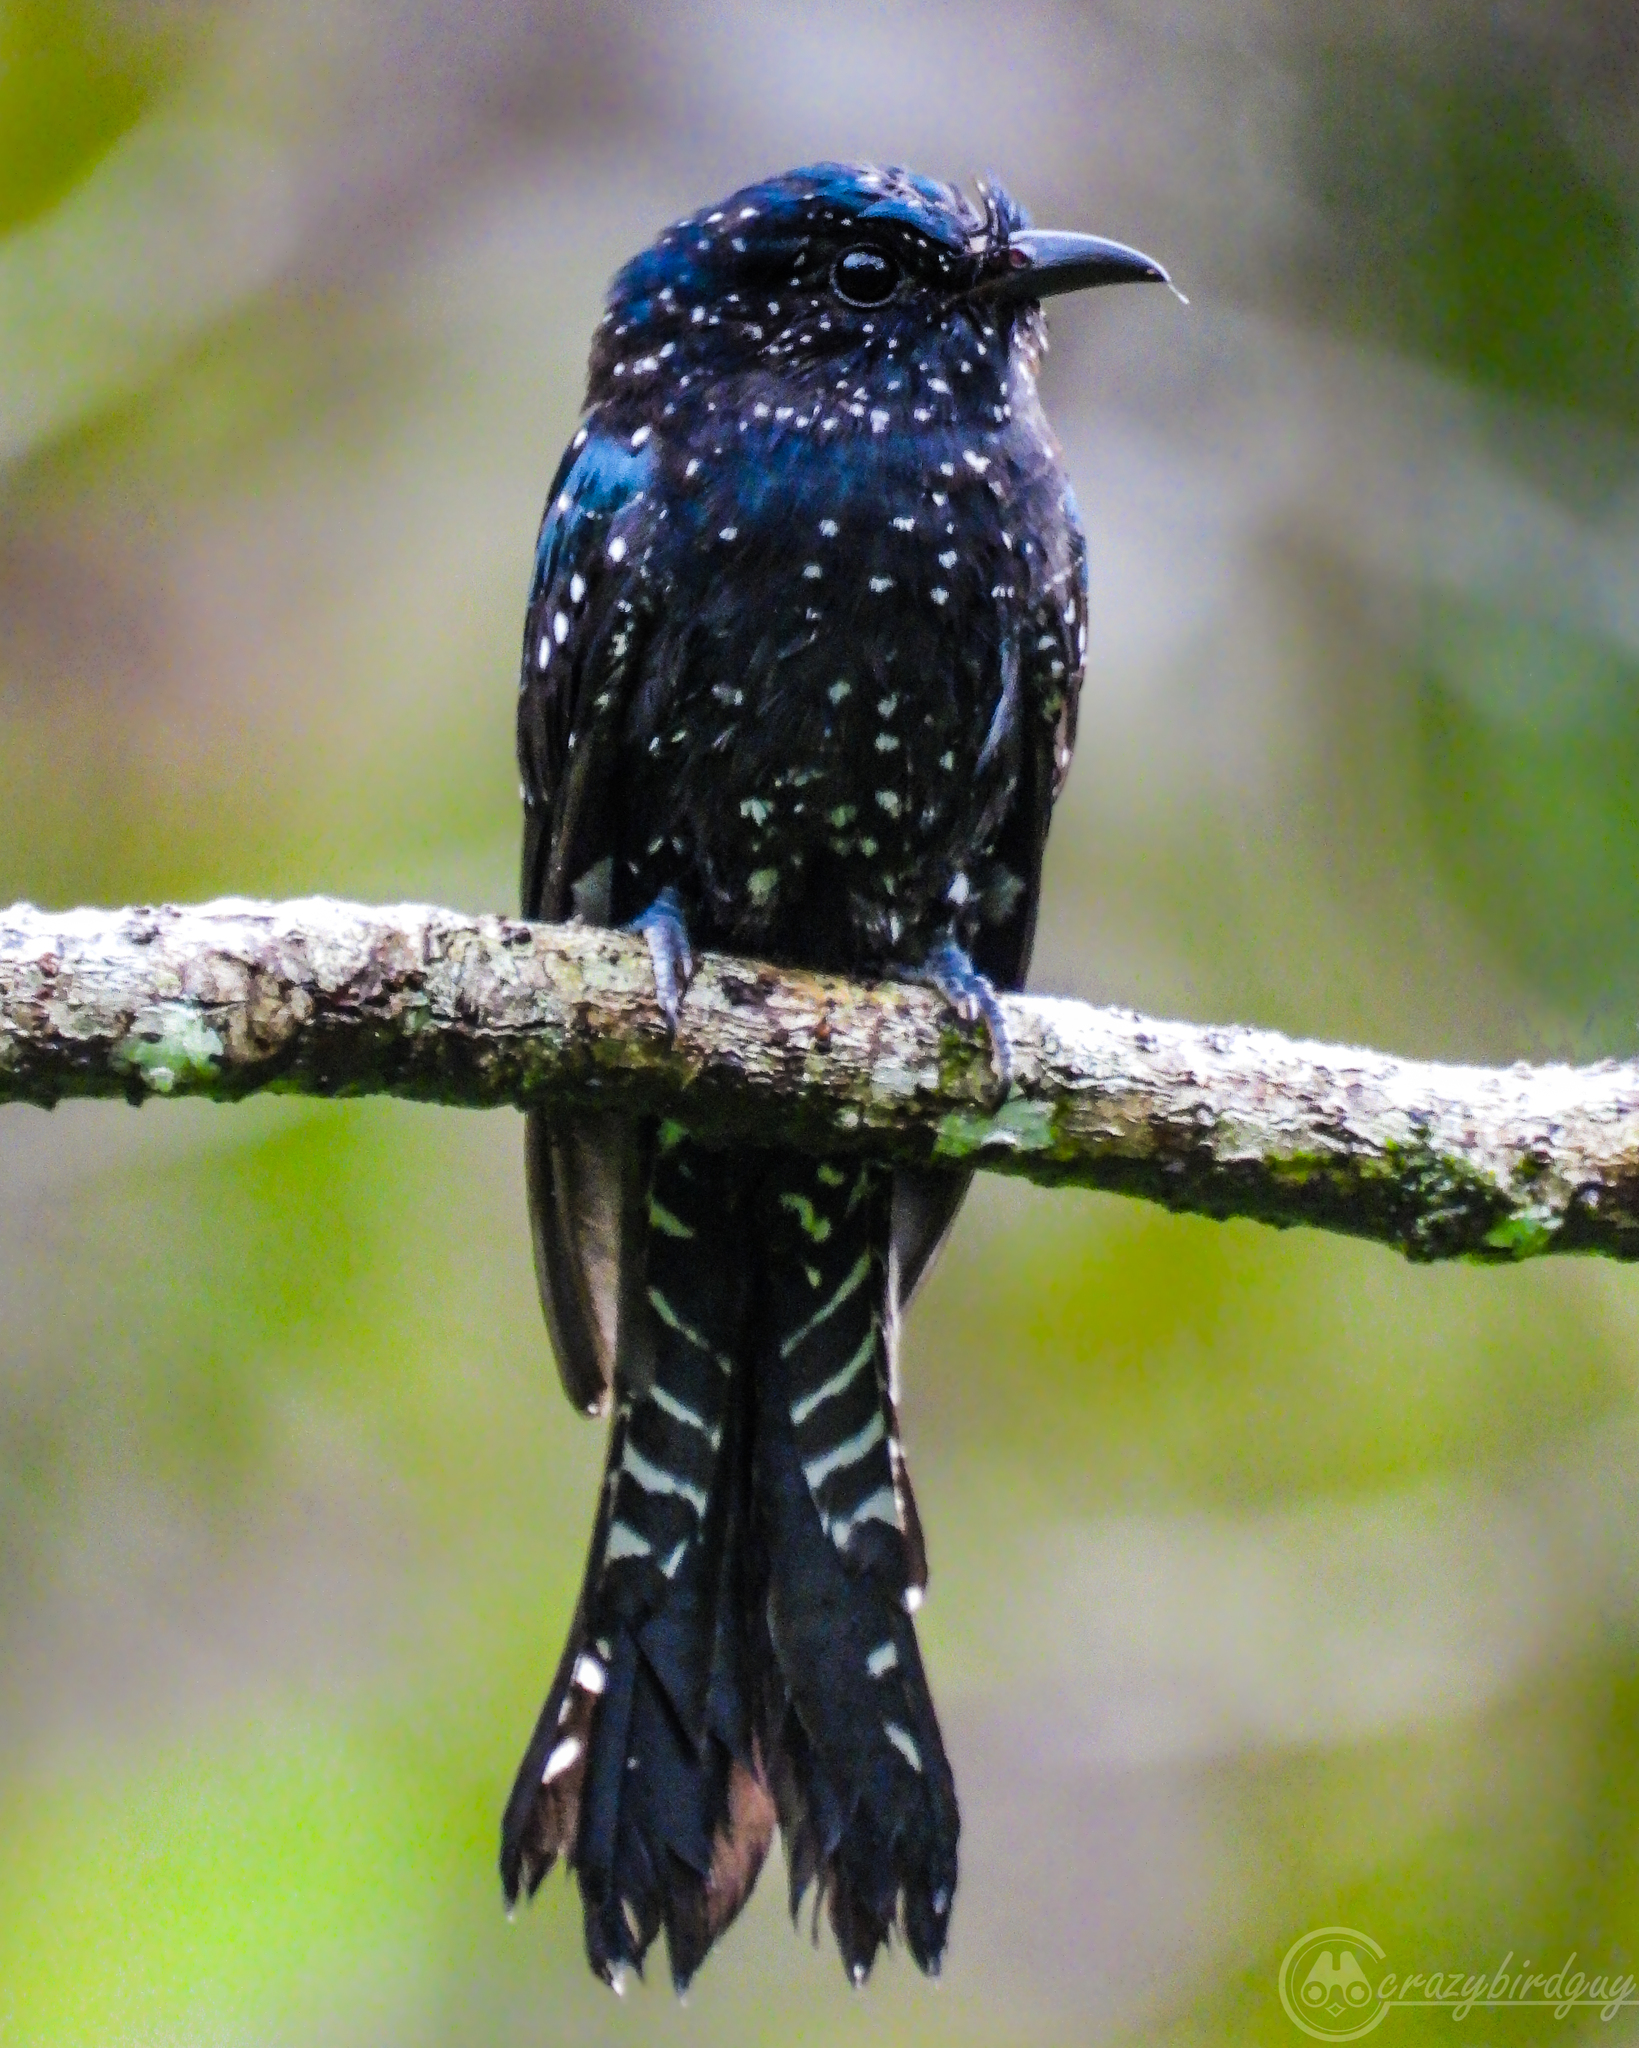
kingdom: Animalia
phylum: Chordata
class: Aves
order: Cuculiformes
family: Cuculidae
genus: Surniculus
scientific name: Surniculus lugubris
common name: Square-tailed drongo-cuckoo
